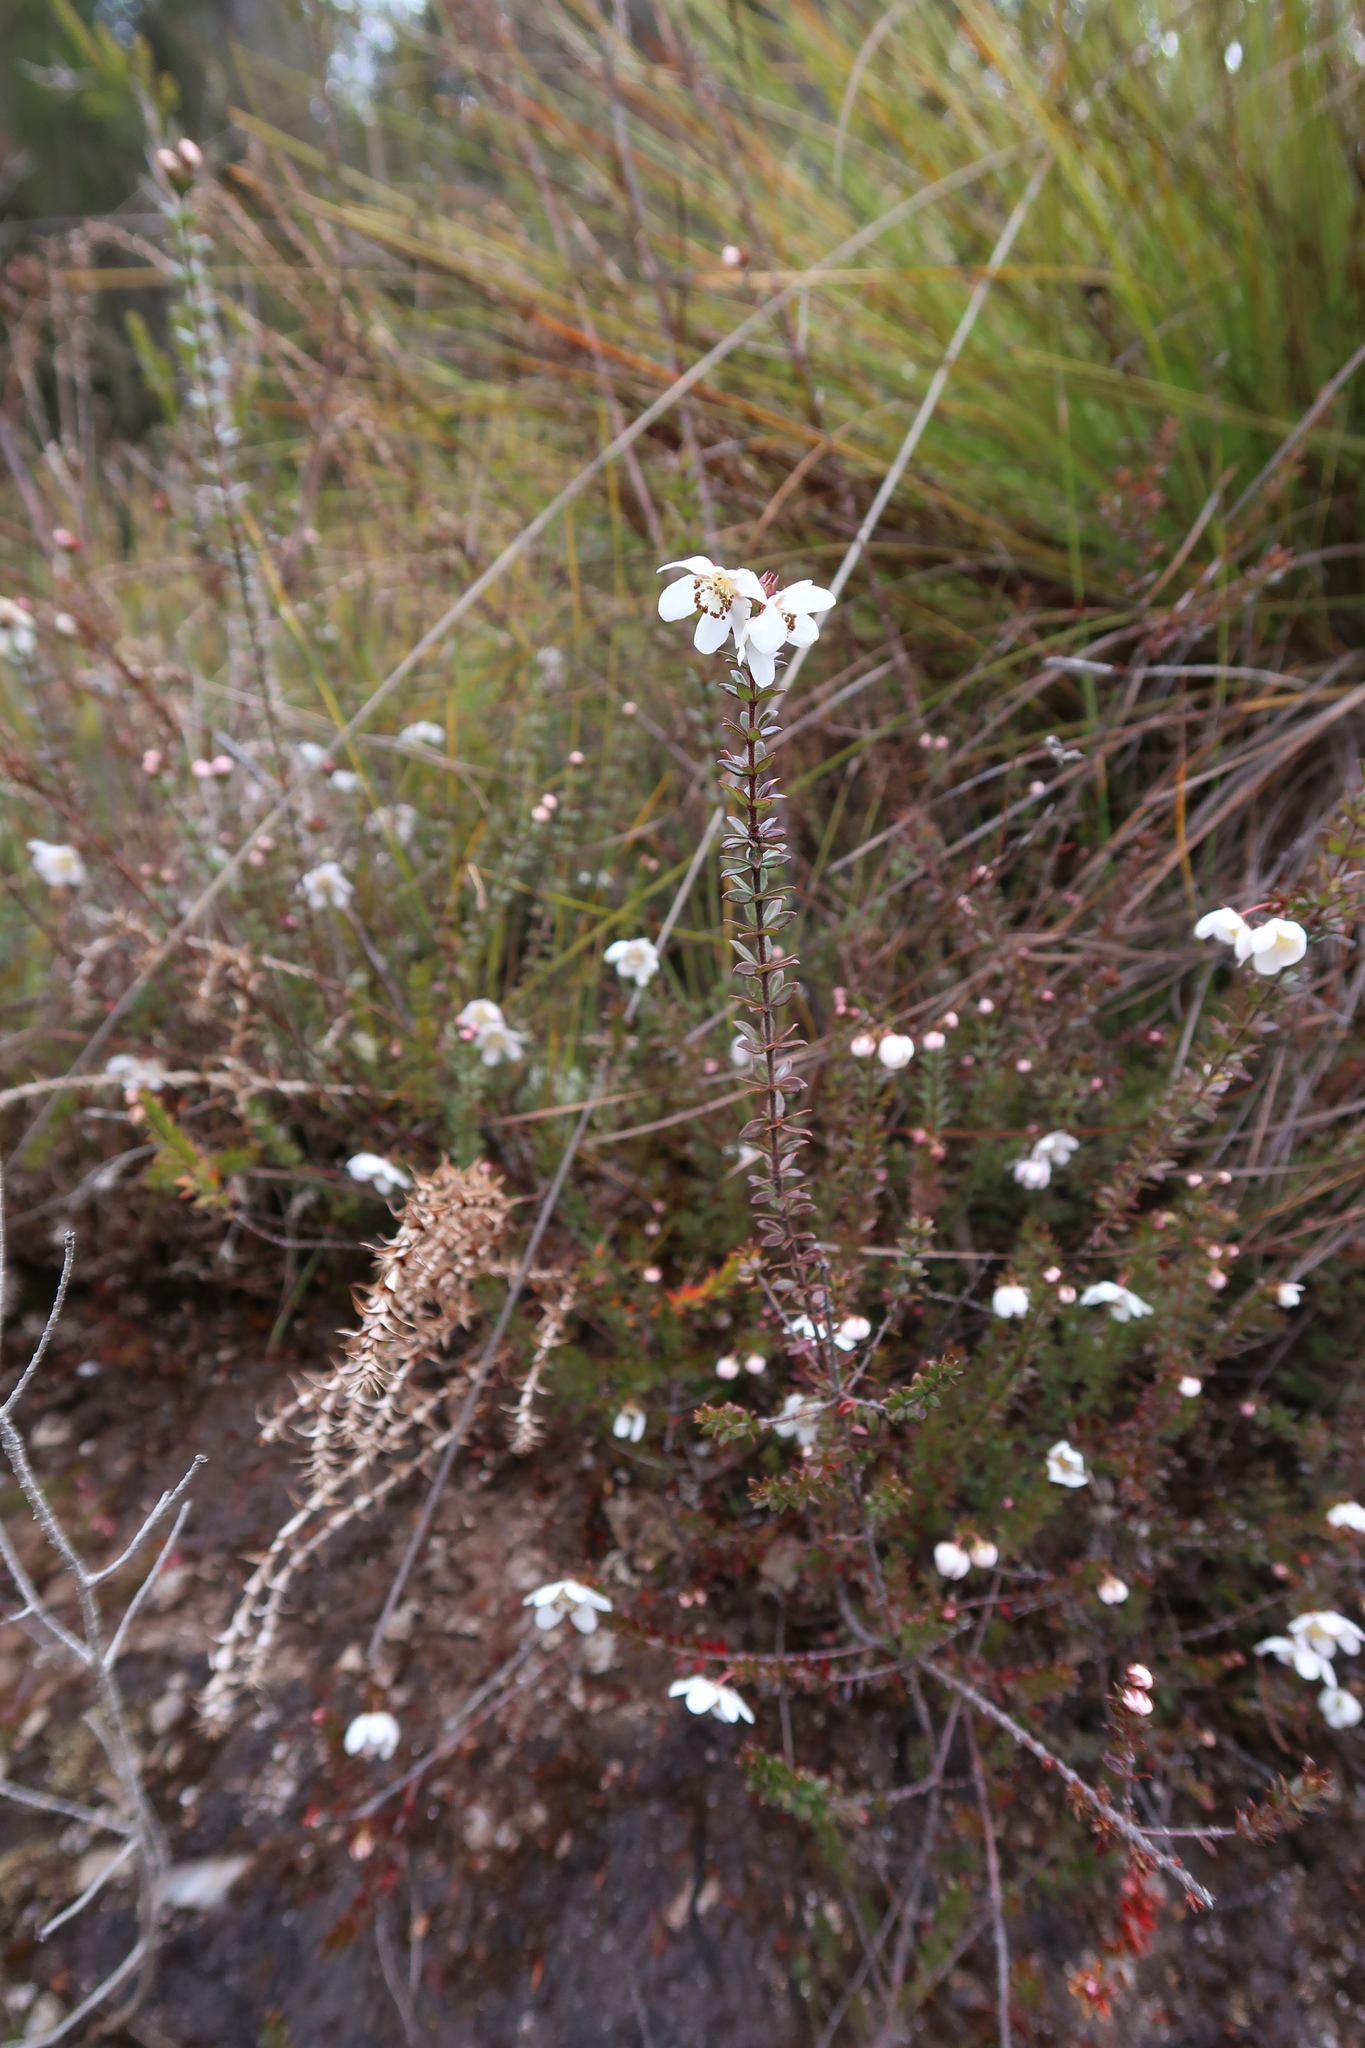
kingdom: Plantae
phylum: Tracheophyta
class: Magnoliopsida
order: Oxalidales
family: Cunoniaceae
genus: Bauera
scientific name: Bauera rubioides
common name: River-rose
